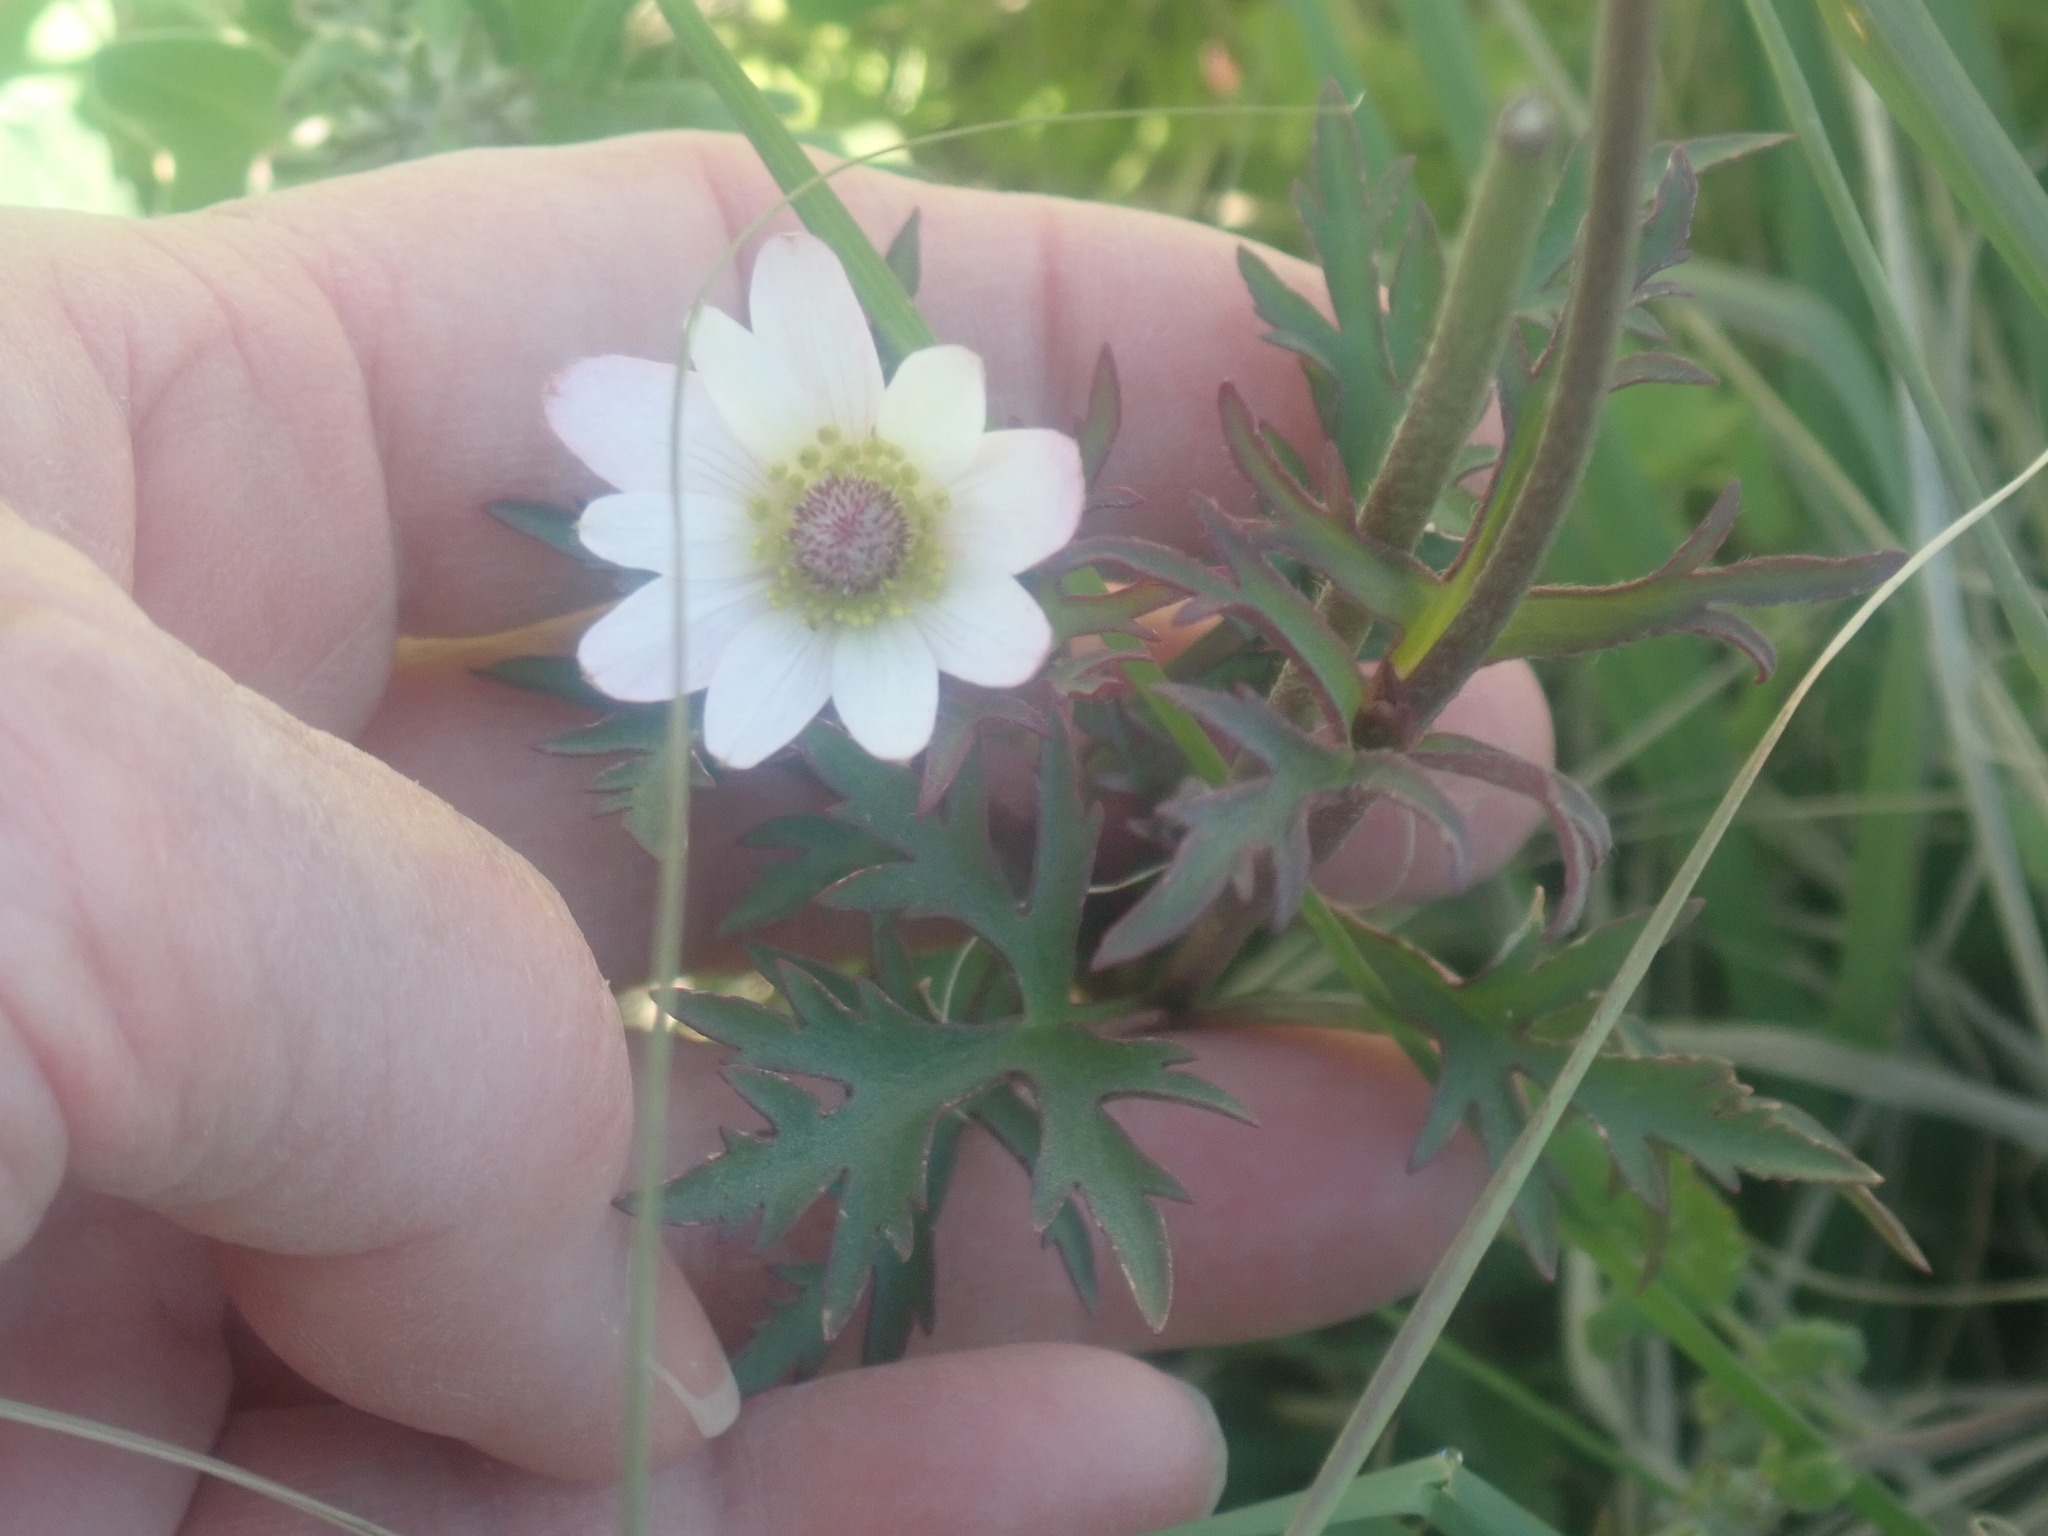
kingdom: Plantae
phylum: Tracheophyta
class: Magnoliopsida
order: Ranunculales
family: Ranunculaceae
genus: Anemone
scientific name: Anemone tuberosa
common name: Desert anemone
